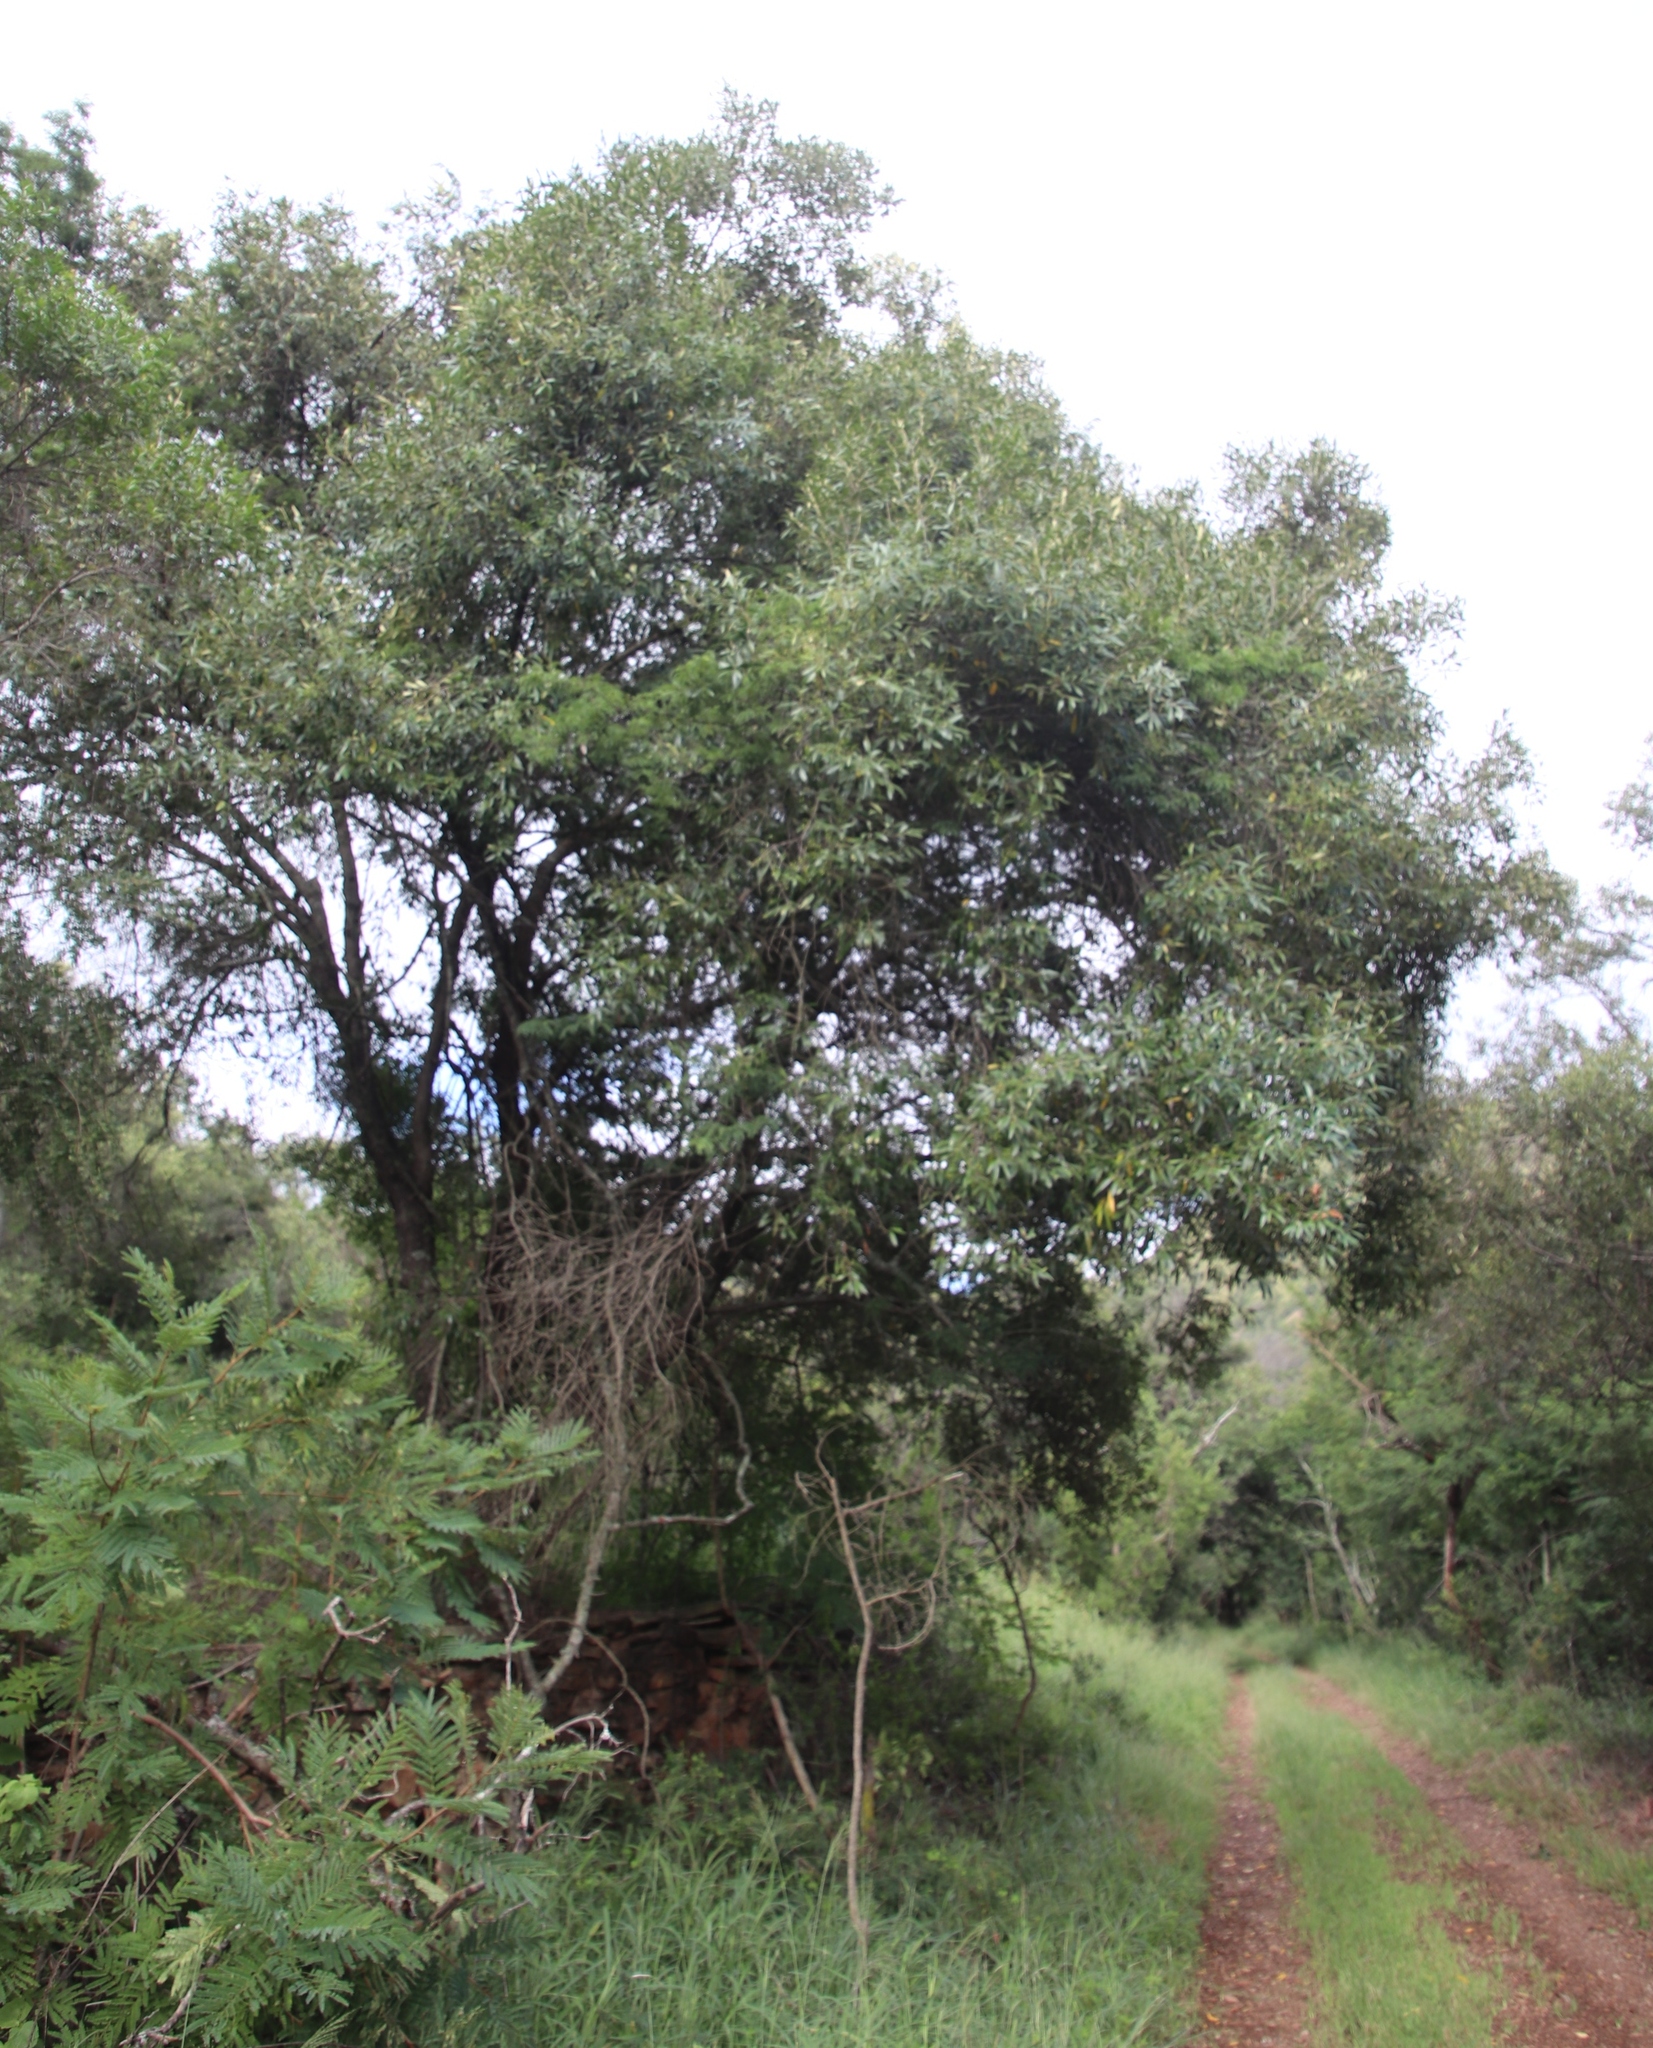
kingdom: Plantae
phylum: Tracheophyta
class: Magnoliopsida
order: Lamiales
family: Oleaceae
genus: Olea
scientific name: Olea europaea
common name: Olive
